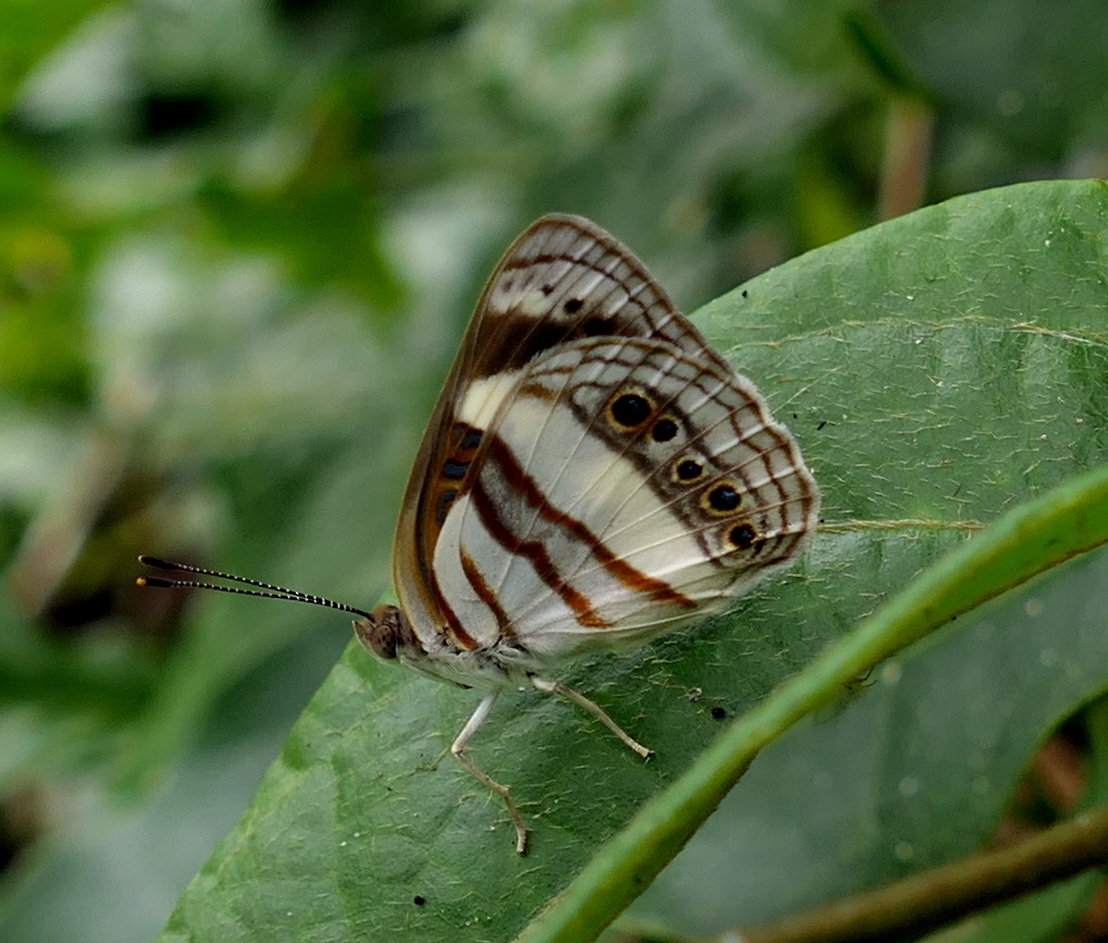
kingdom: Animalia
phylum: Arthropoda
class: Insecta
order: Lepidoptera
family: Nymphalidae
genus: Dynamine
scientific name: Dynamine arene
